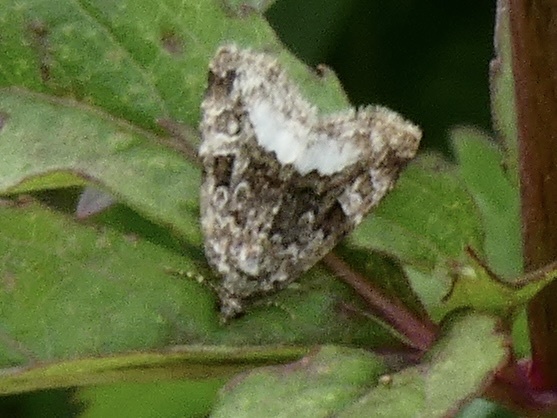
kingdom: Animalia
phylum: Arthropoda
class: Insecta
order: Lepidoptera
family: Noctuidae
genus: Deltote
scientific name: Deltote pygarga
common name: Marbled white spot
